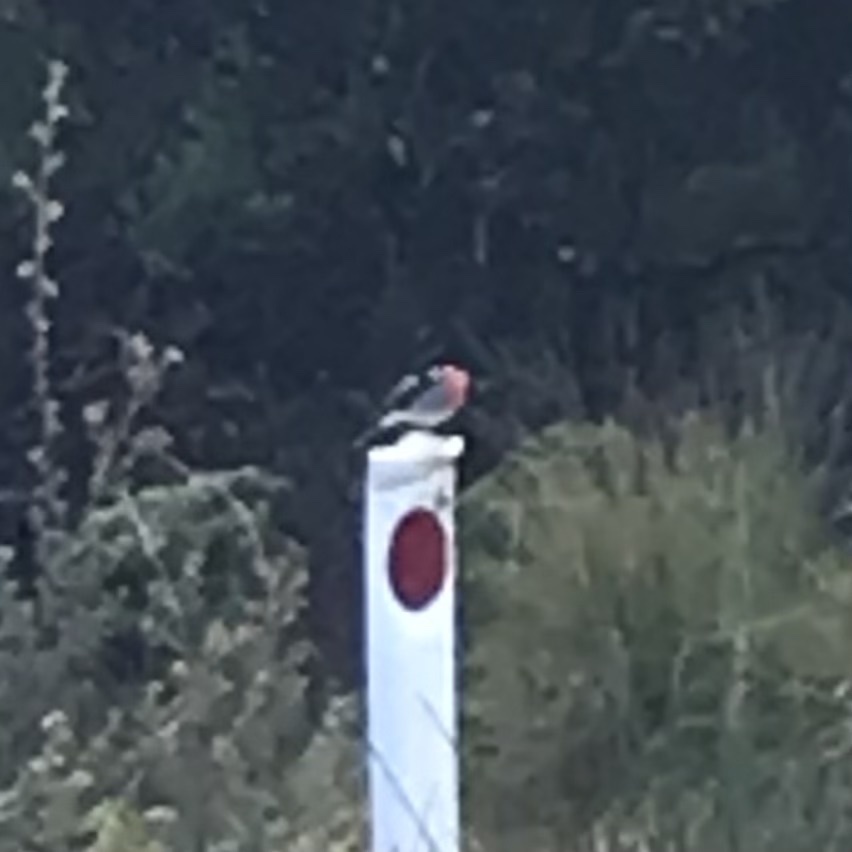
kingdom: Animalia
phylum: Chordata
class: Aves
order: Passeriformes
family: Petroicidae
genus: Petroica
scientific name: Petroica boodang
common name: Scarlet robin
